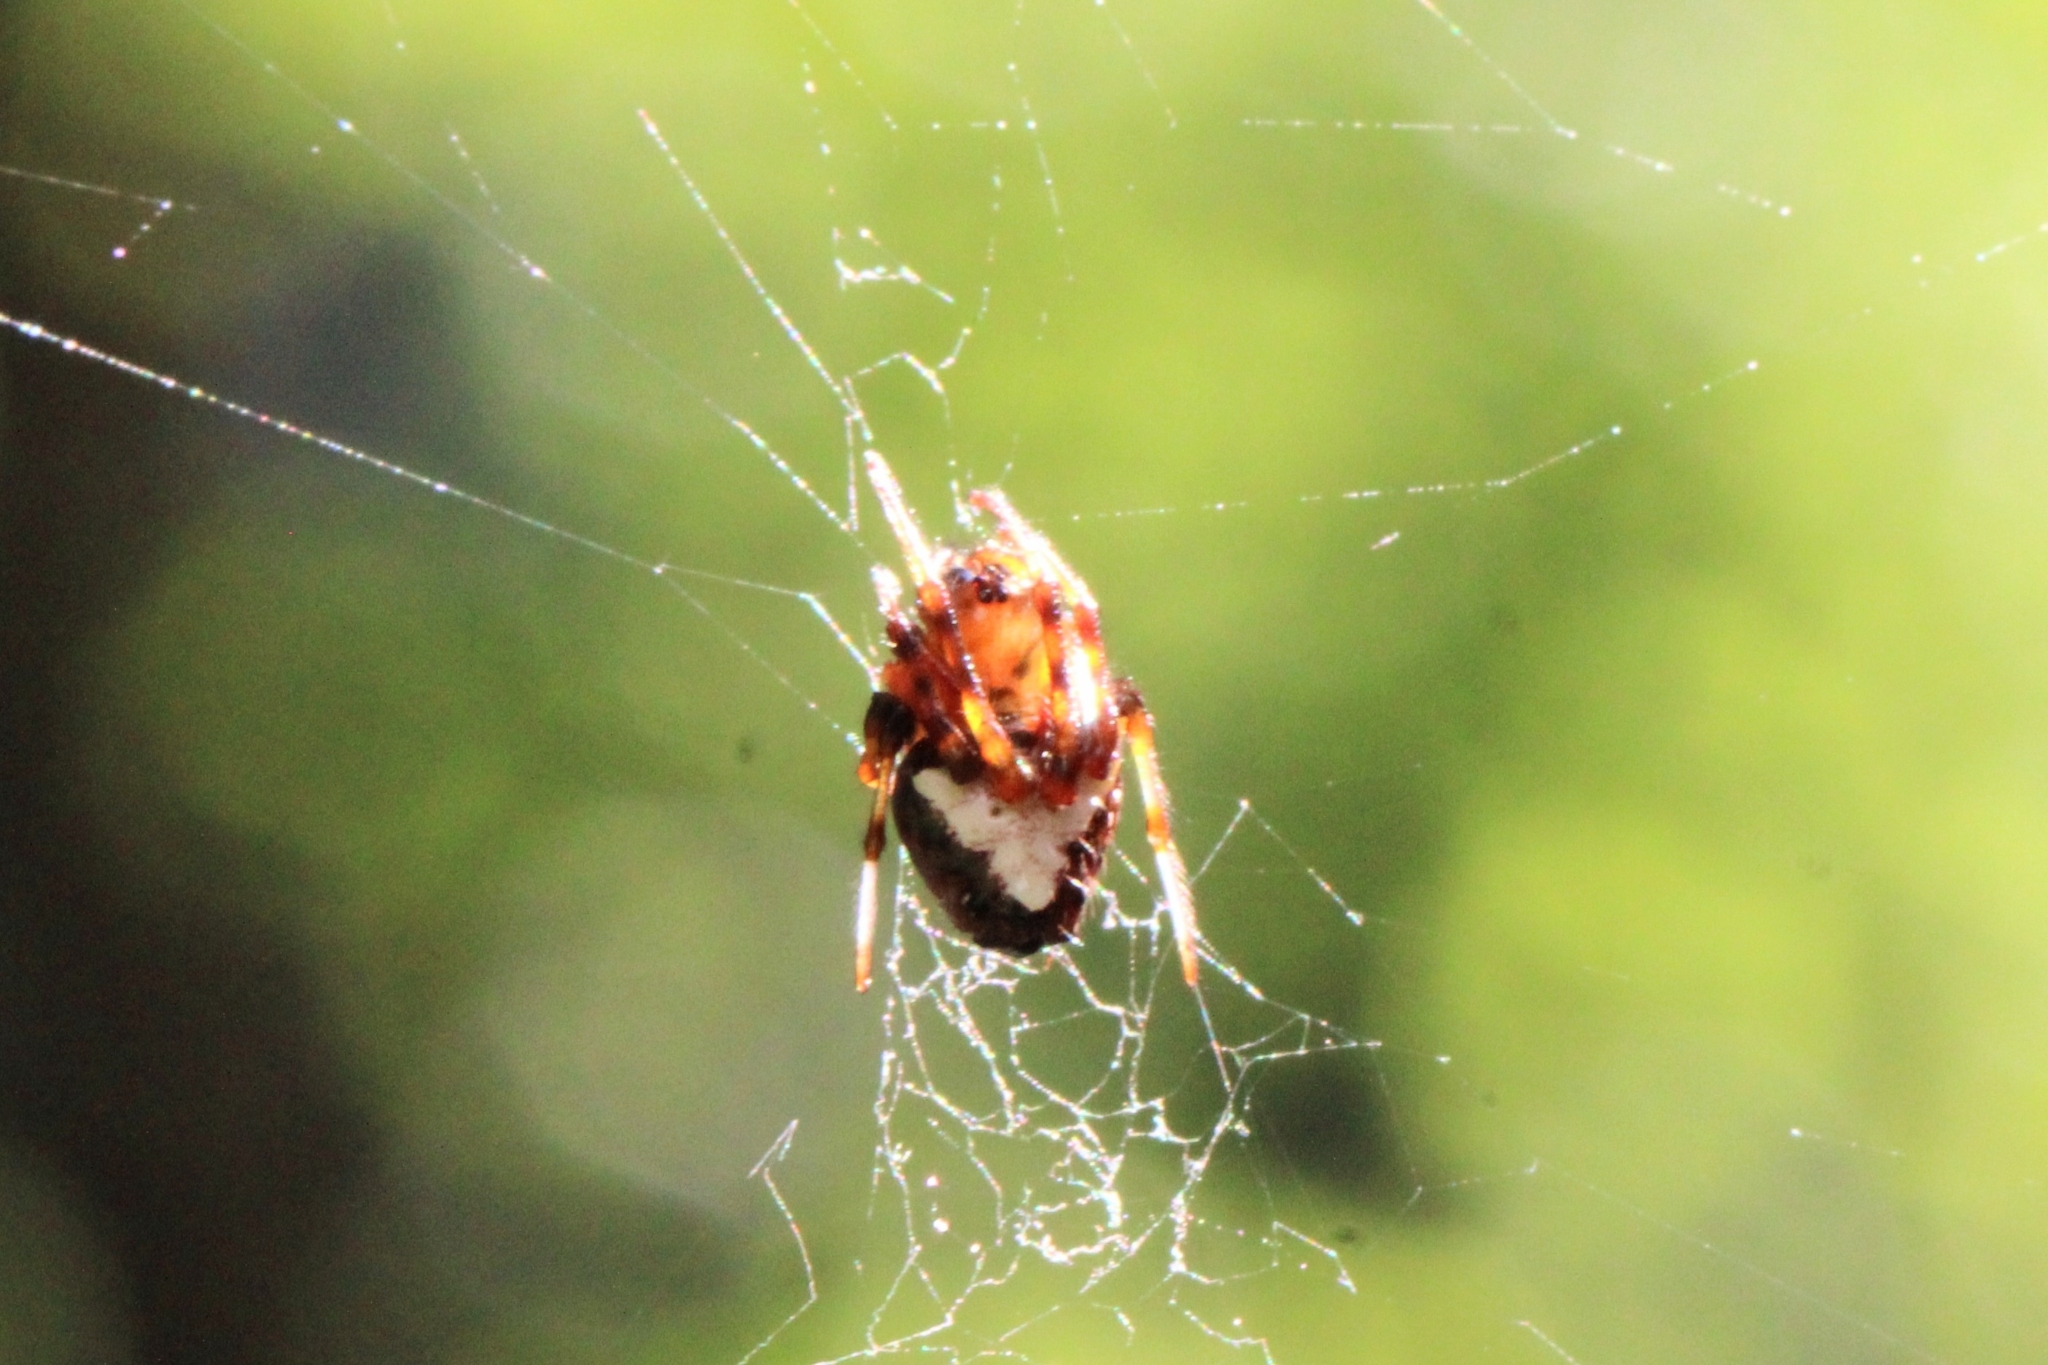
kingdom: Animalia
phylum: Arthropoda
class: Arachnida
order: Araneae
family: Araneidae
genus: Verrucosa
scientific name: Verrucosa arenata
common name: Orb weavers
